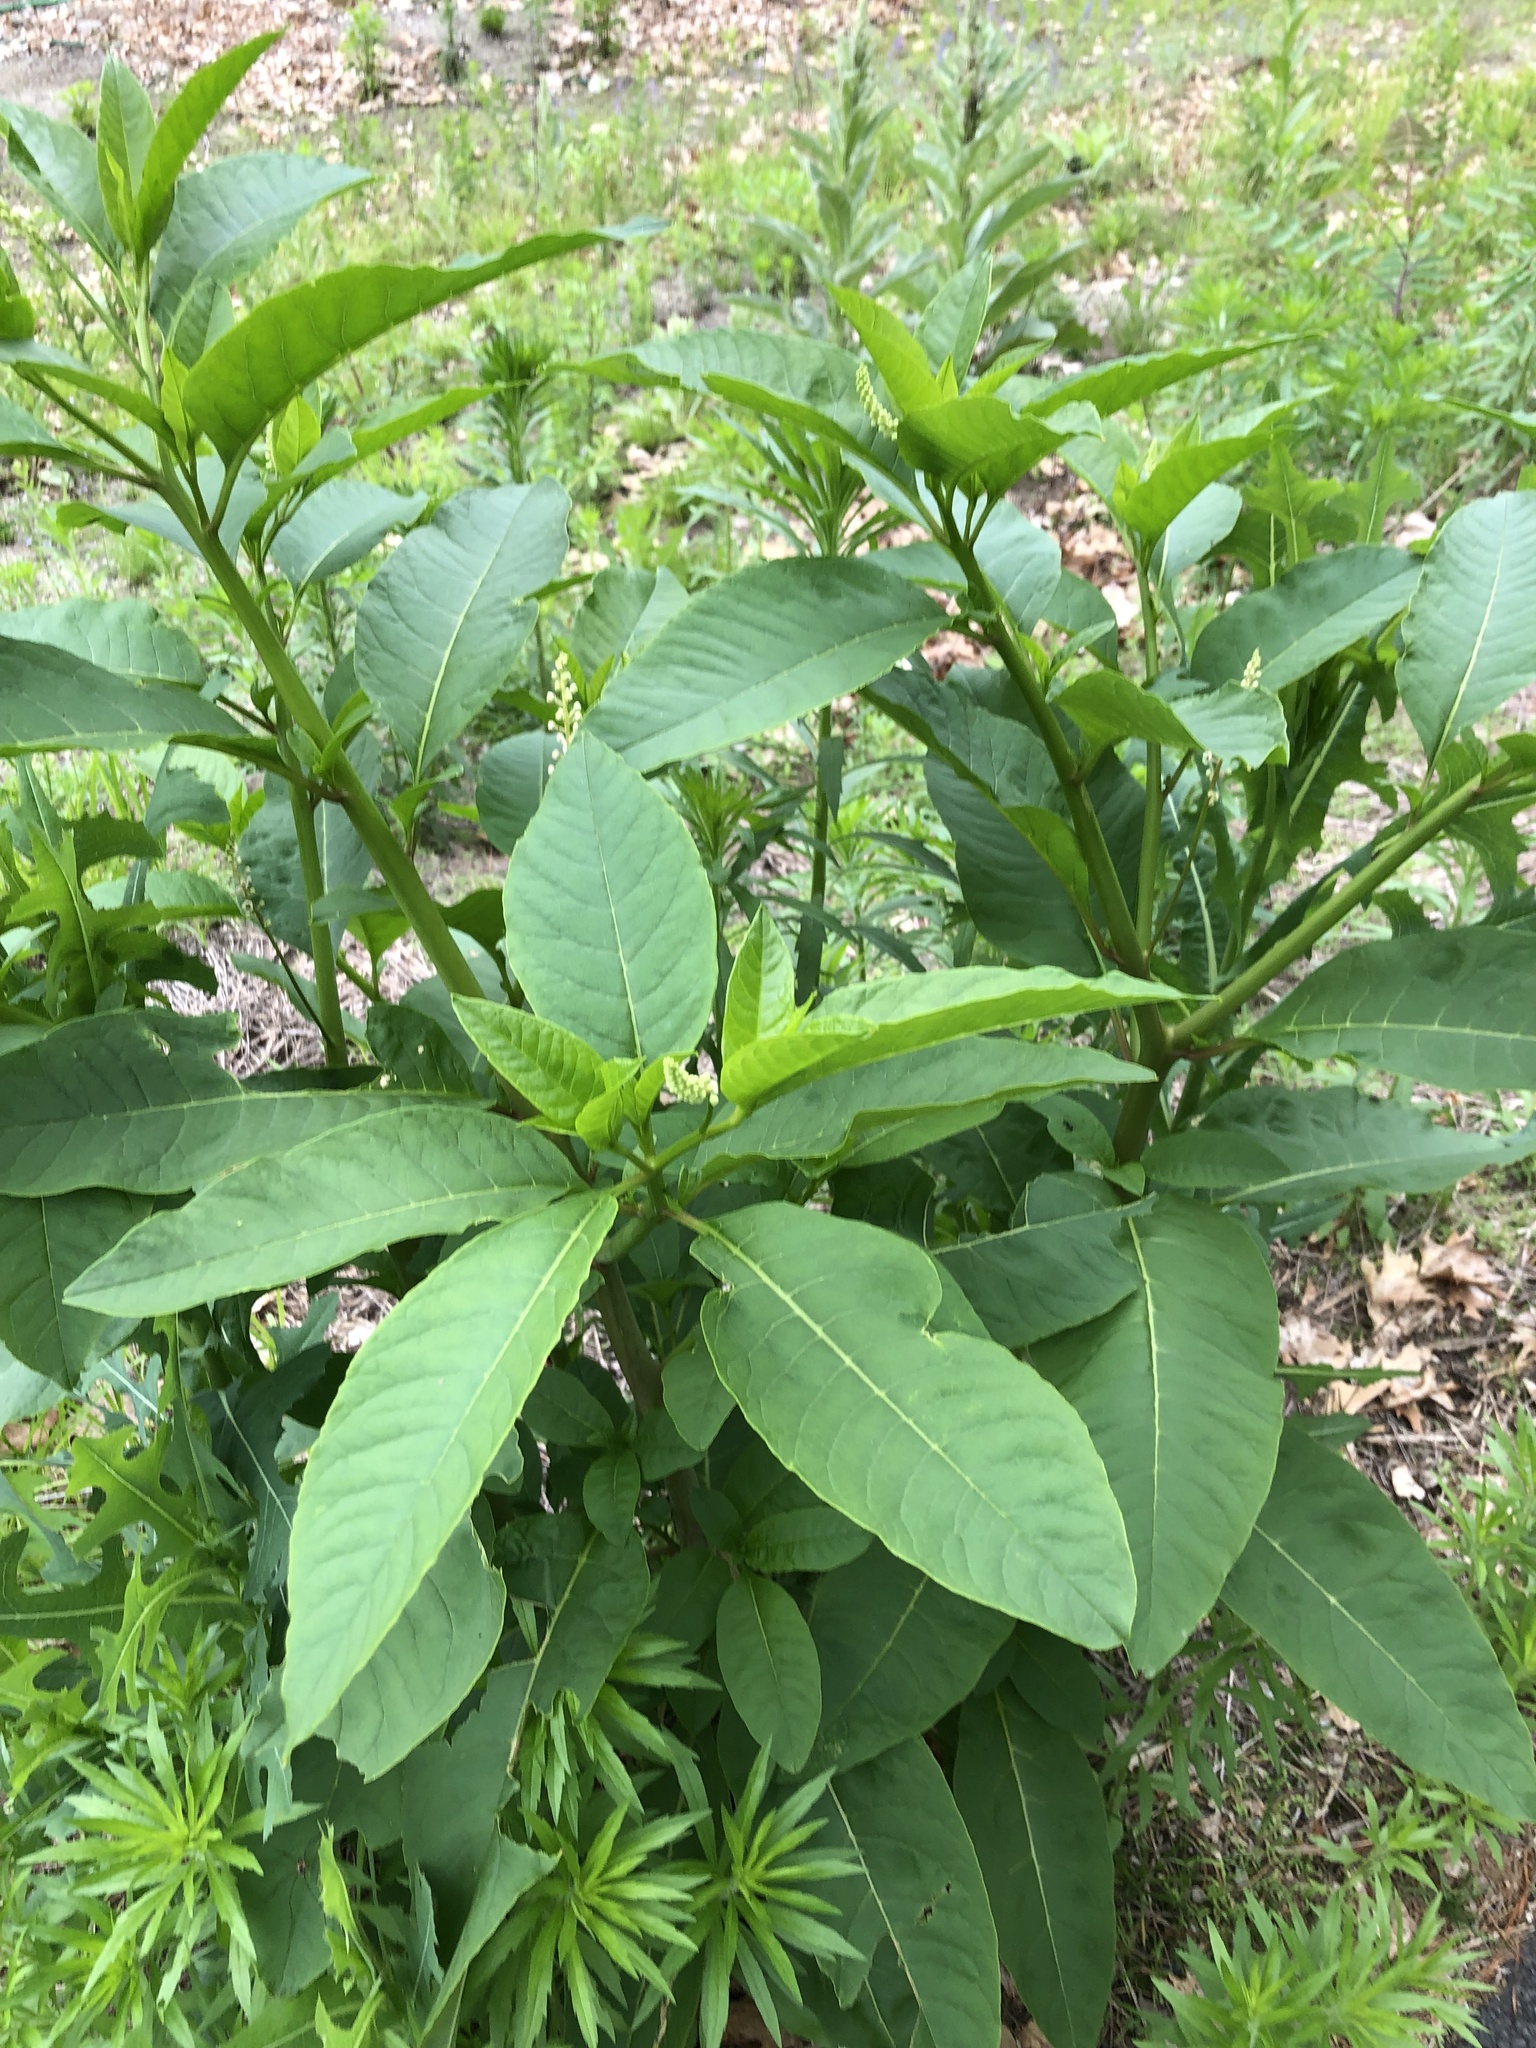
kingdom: Plantae
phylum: Tracheophyta
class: Magnoliopsida
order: Caryophyllales
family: Phytolaccaceae
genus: Phytolacca
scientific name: Phytolacca americana
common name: American pokeweed
